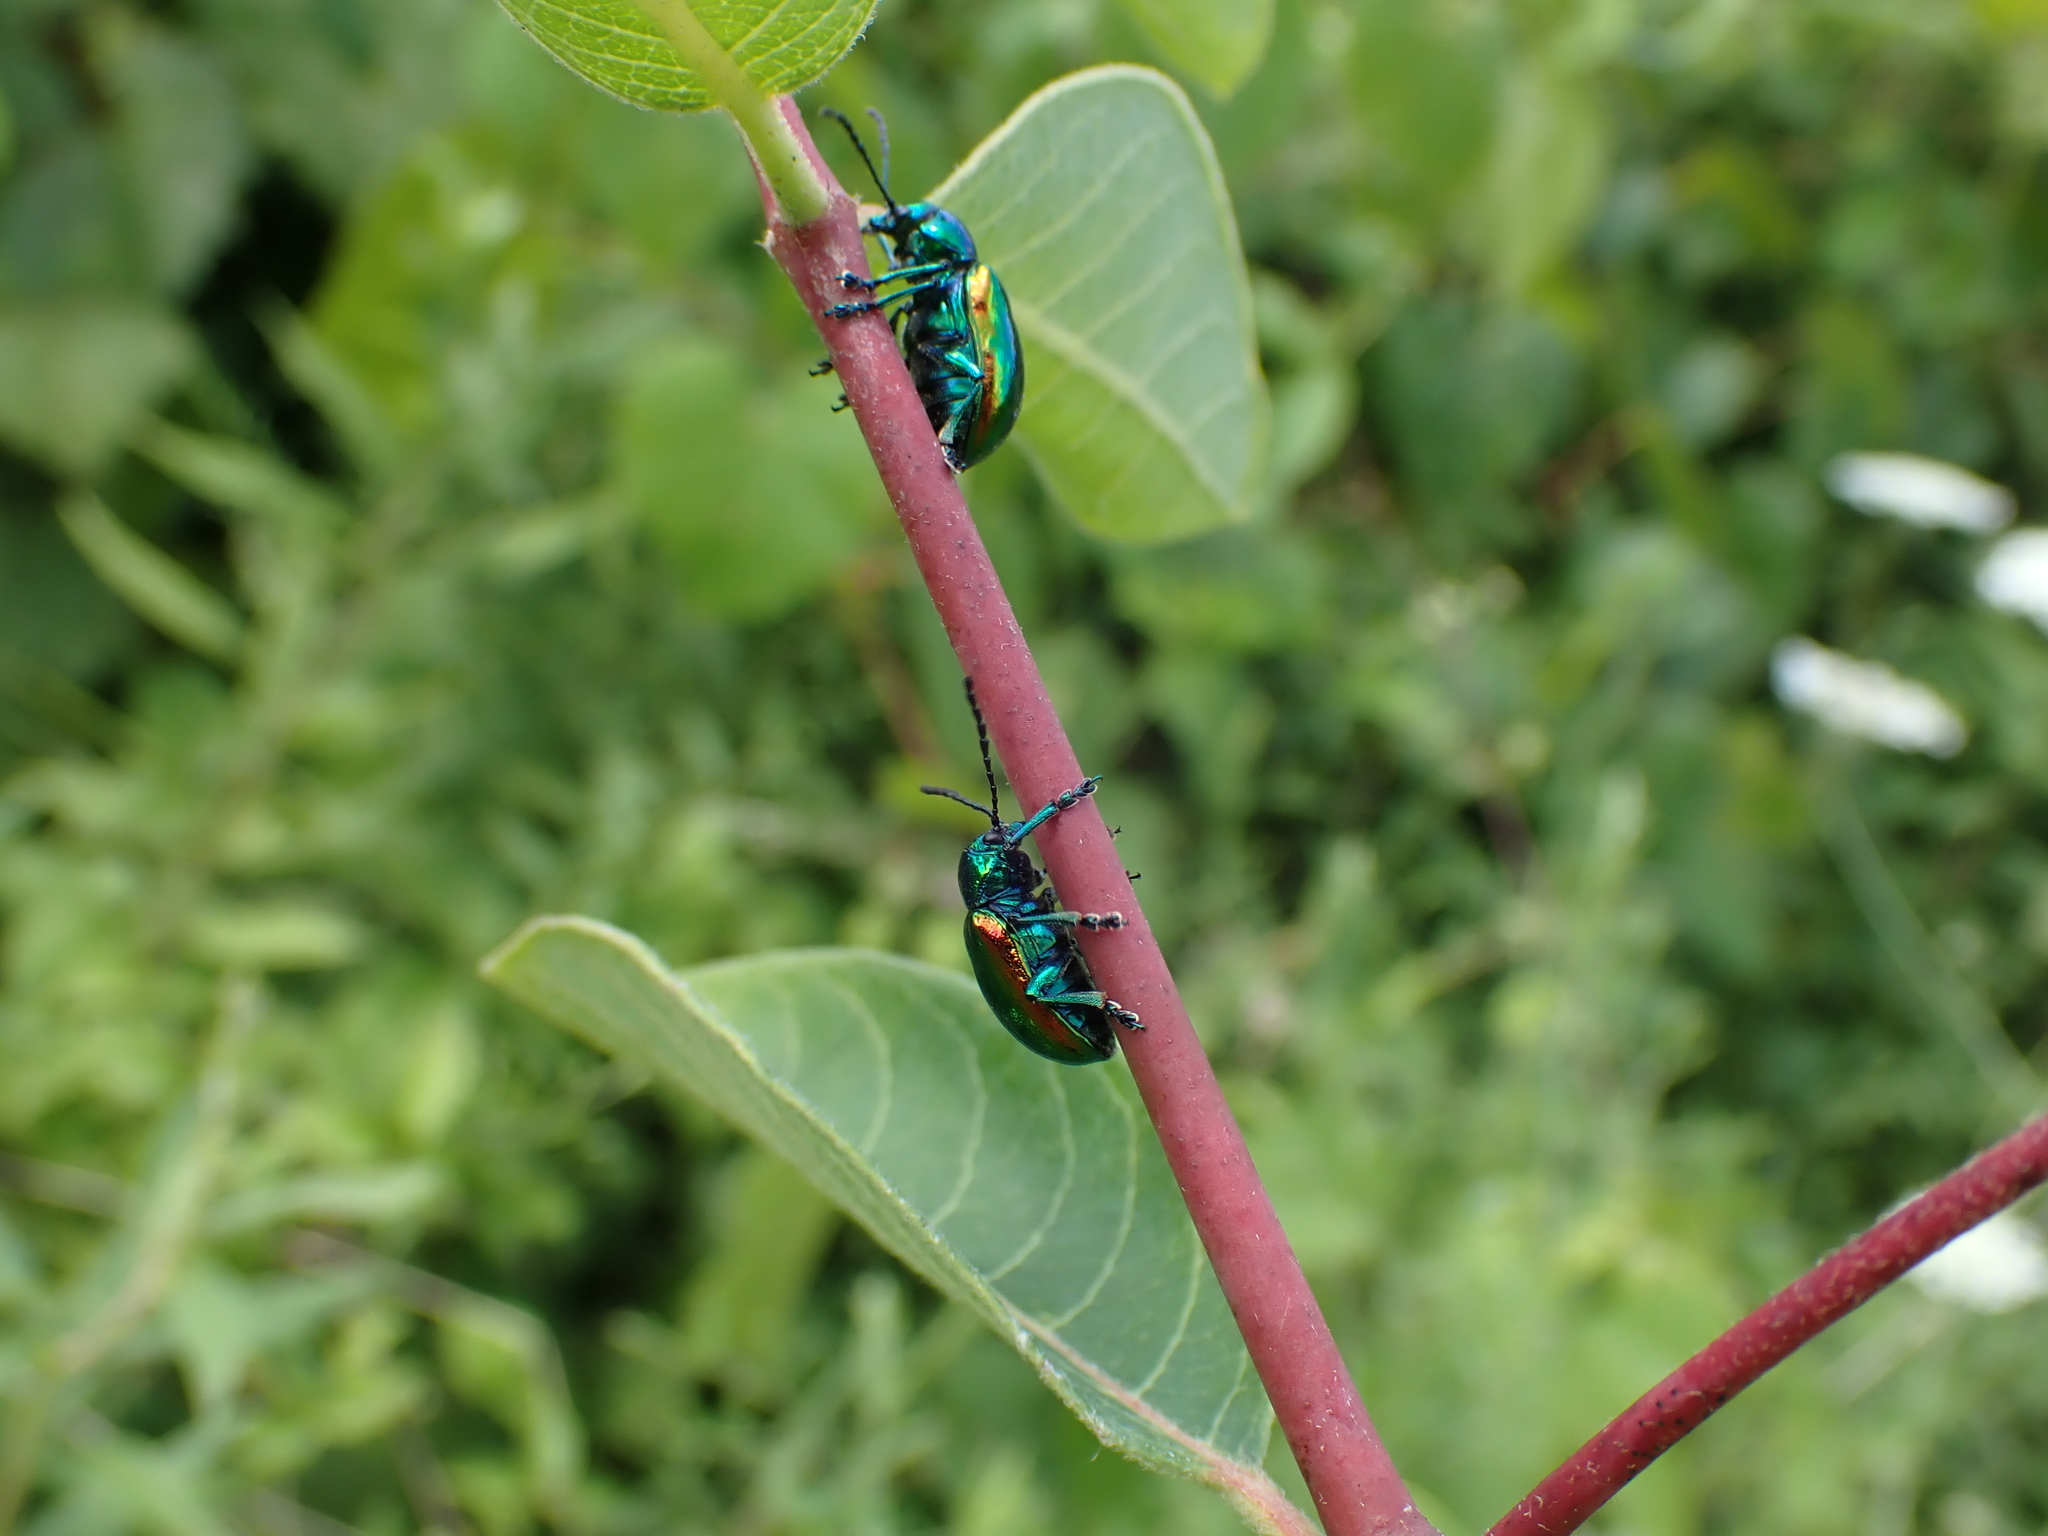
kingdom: Animalia
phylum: Arthropoda
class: Insecta
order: Coleoptera
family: Chrysomelidae
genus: Chrysochus
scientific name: Chrysochus auratus
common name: Dogbane leaf beetle
